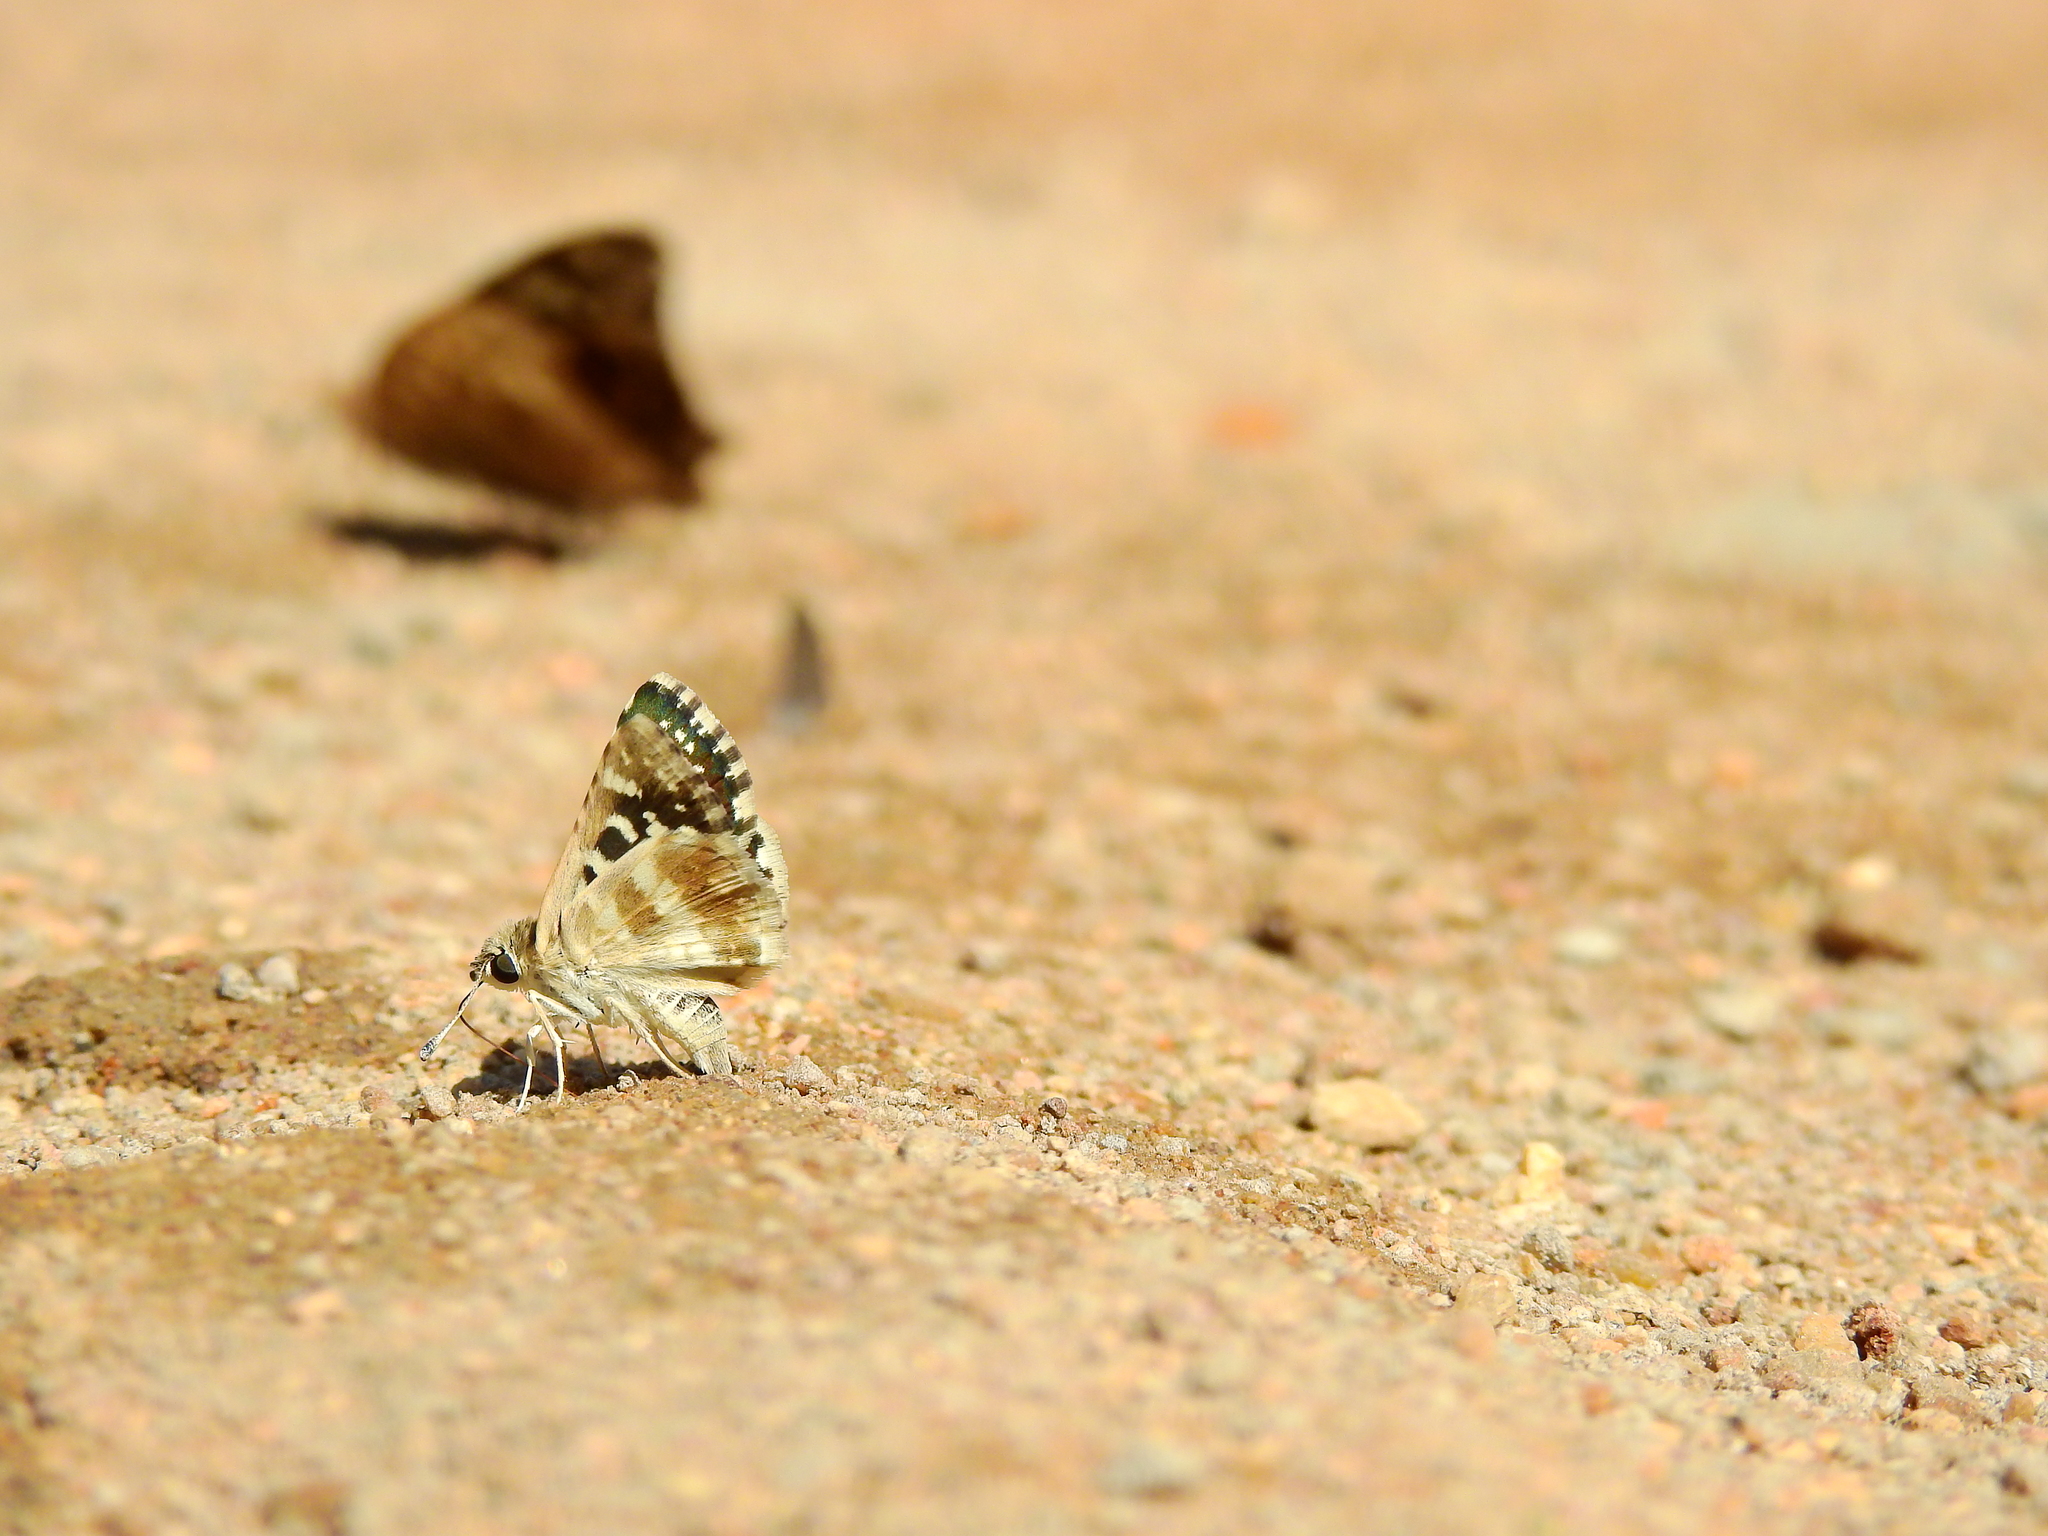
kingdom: Animalia
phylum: Arthropoda
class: Insecta
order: Lepidoptera
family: Hesperiidae
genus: Spialia
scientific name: Spialia galba
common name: Indian skipper
